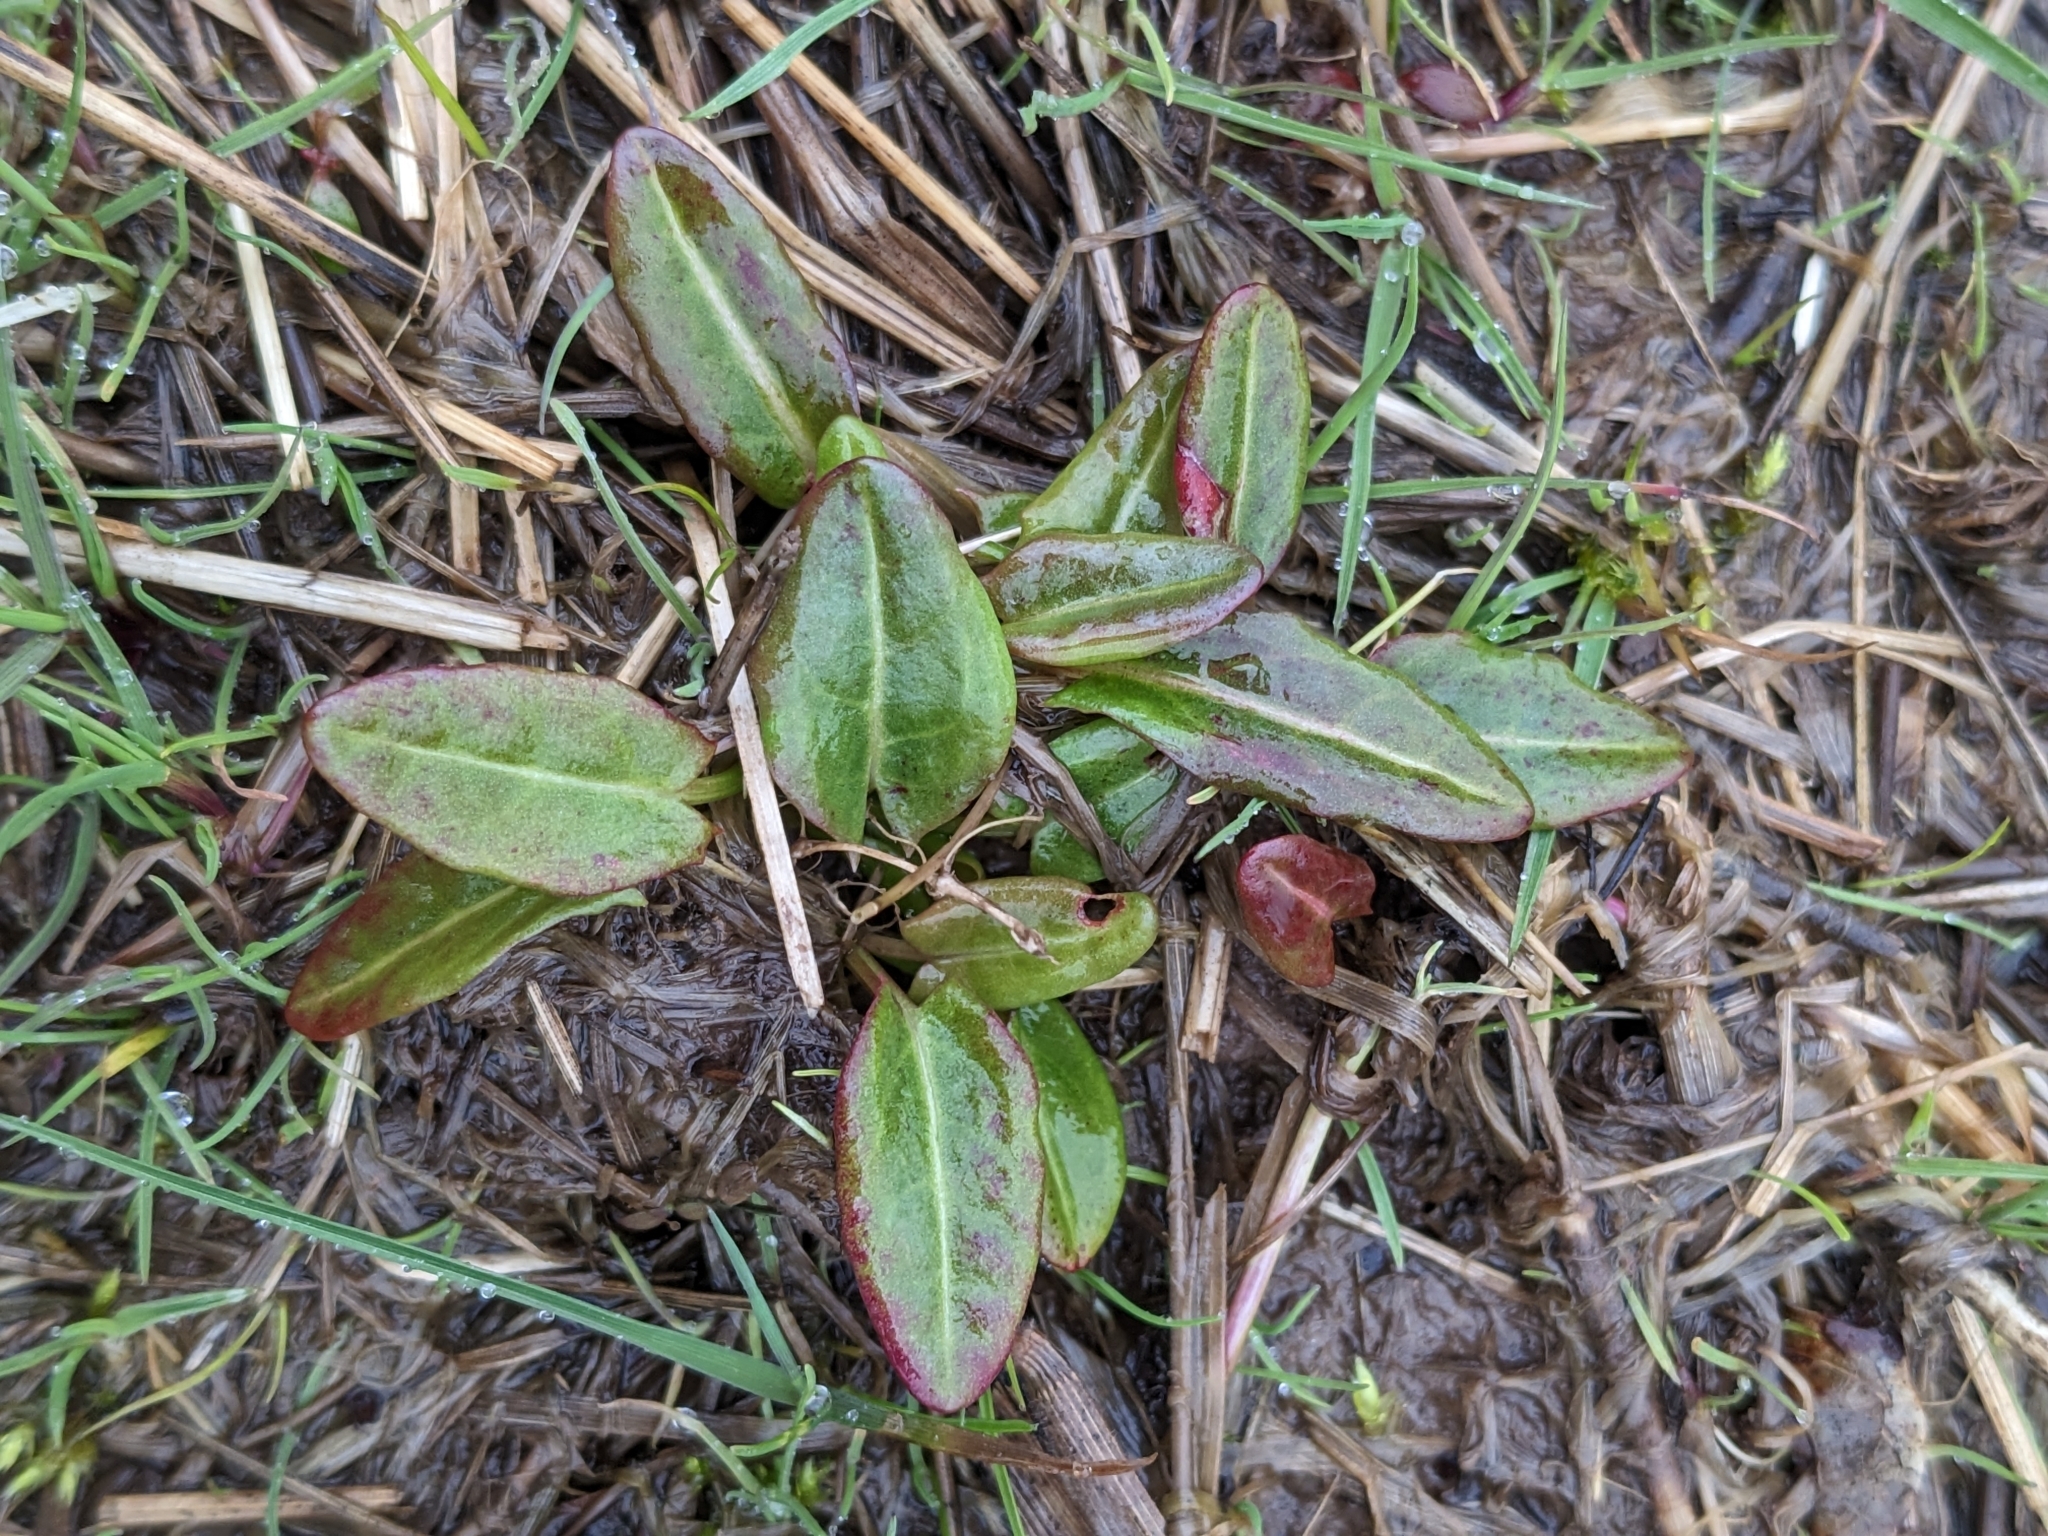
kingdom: Plantae
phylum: Tracheophyta
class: Magnoliopsida
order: Caryophyllales
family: Polygonaceae
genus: Rumex
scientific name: Rumex acetosa
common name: Garden sorrel
